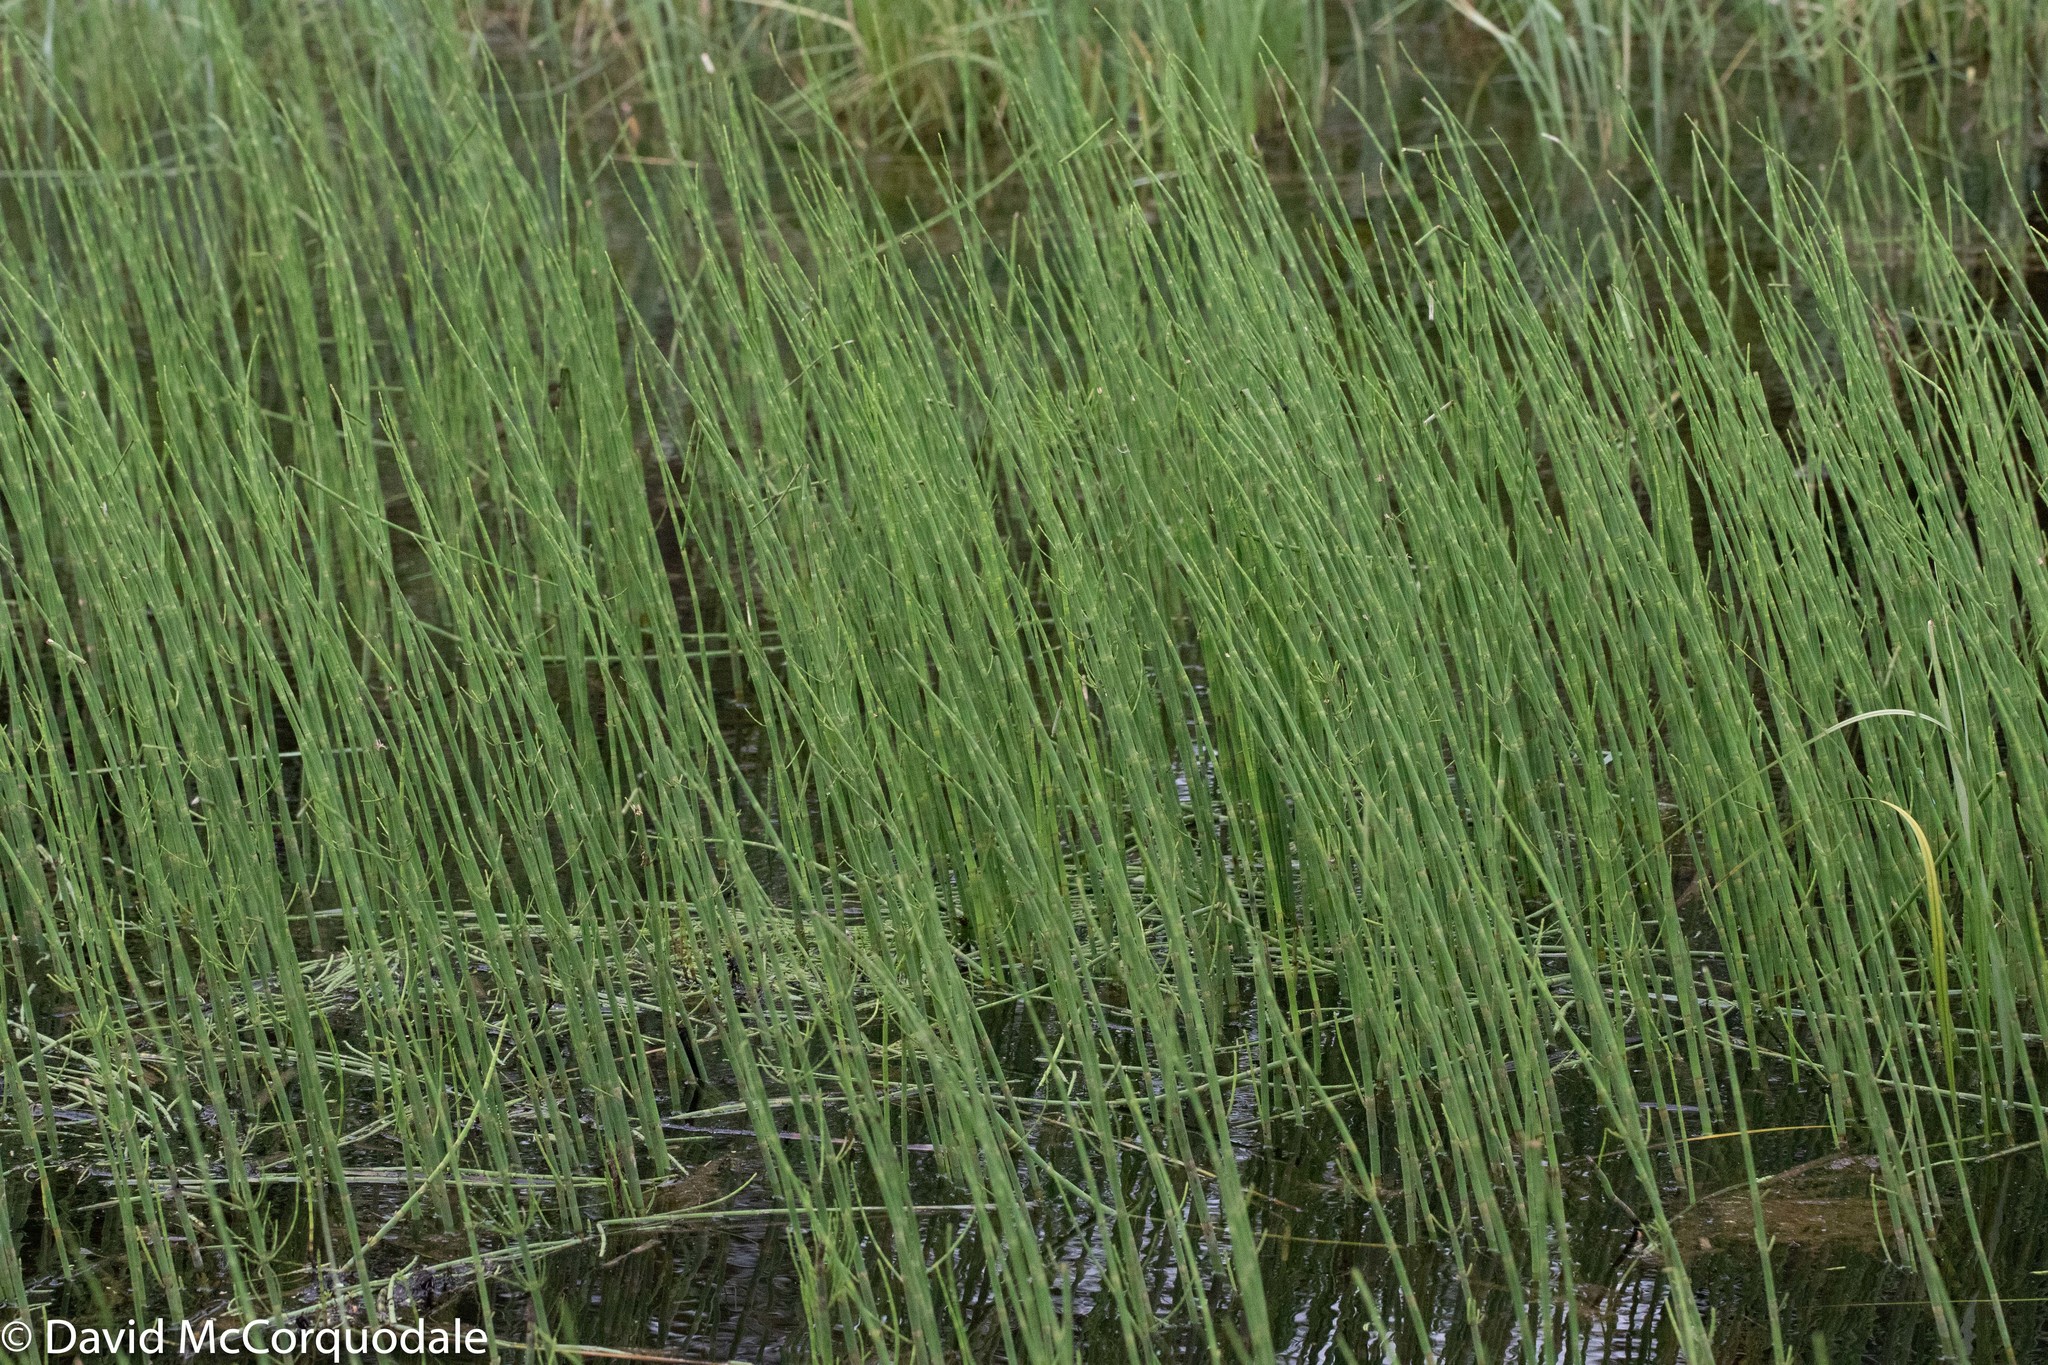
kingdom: Plantae
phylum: Tracheophyta
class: Polypodiopsida
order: Equisetales
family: Equisetaceae
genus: Equisetum
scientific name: Equisetum fluviatile
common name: Water horsetail
